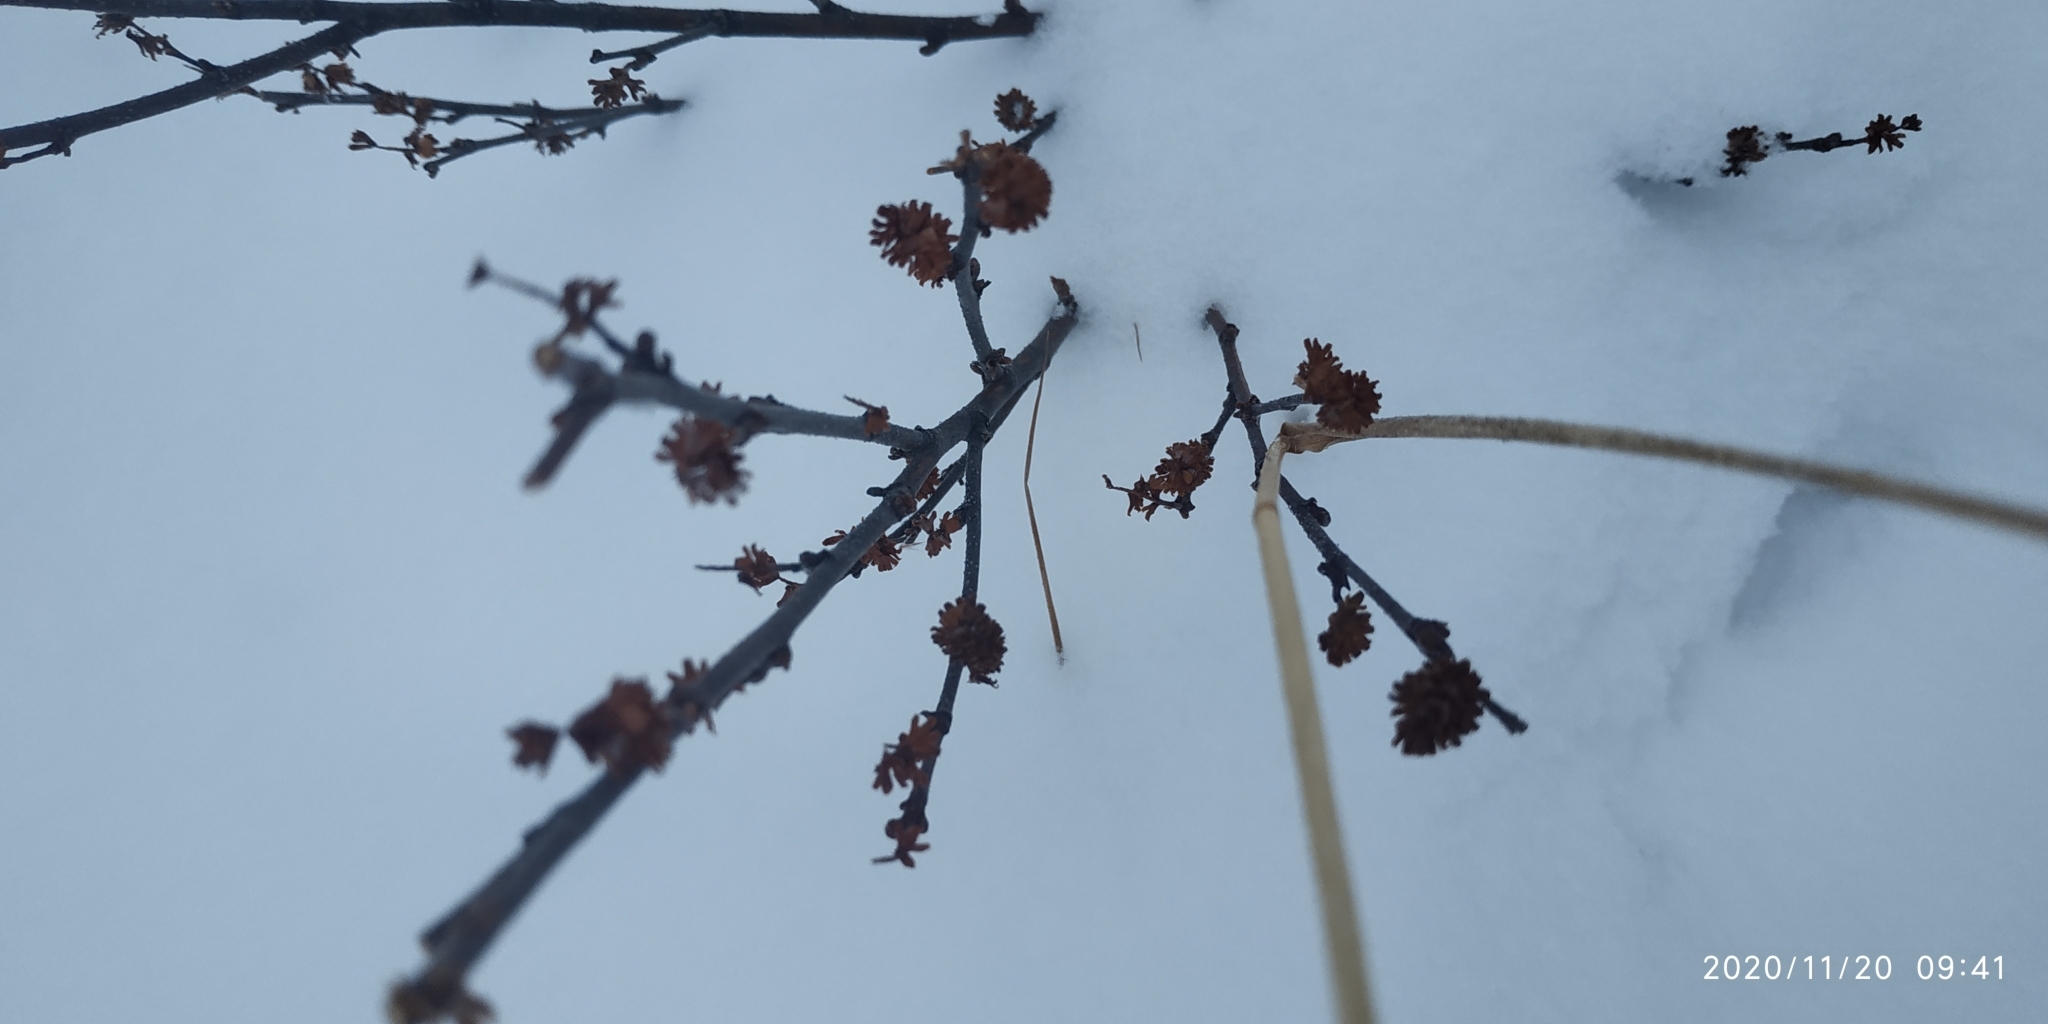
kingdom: Plantae
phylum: Tracheophyta
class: Magnoliopsida
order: Fagales
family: Betulaceae
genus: Betula
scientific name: Betula nana
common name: Arctic dwarf birch
